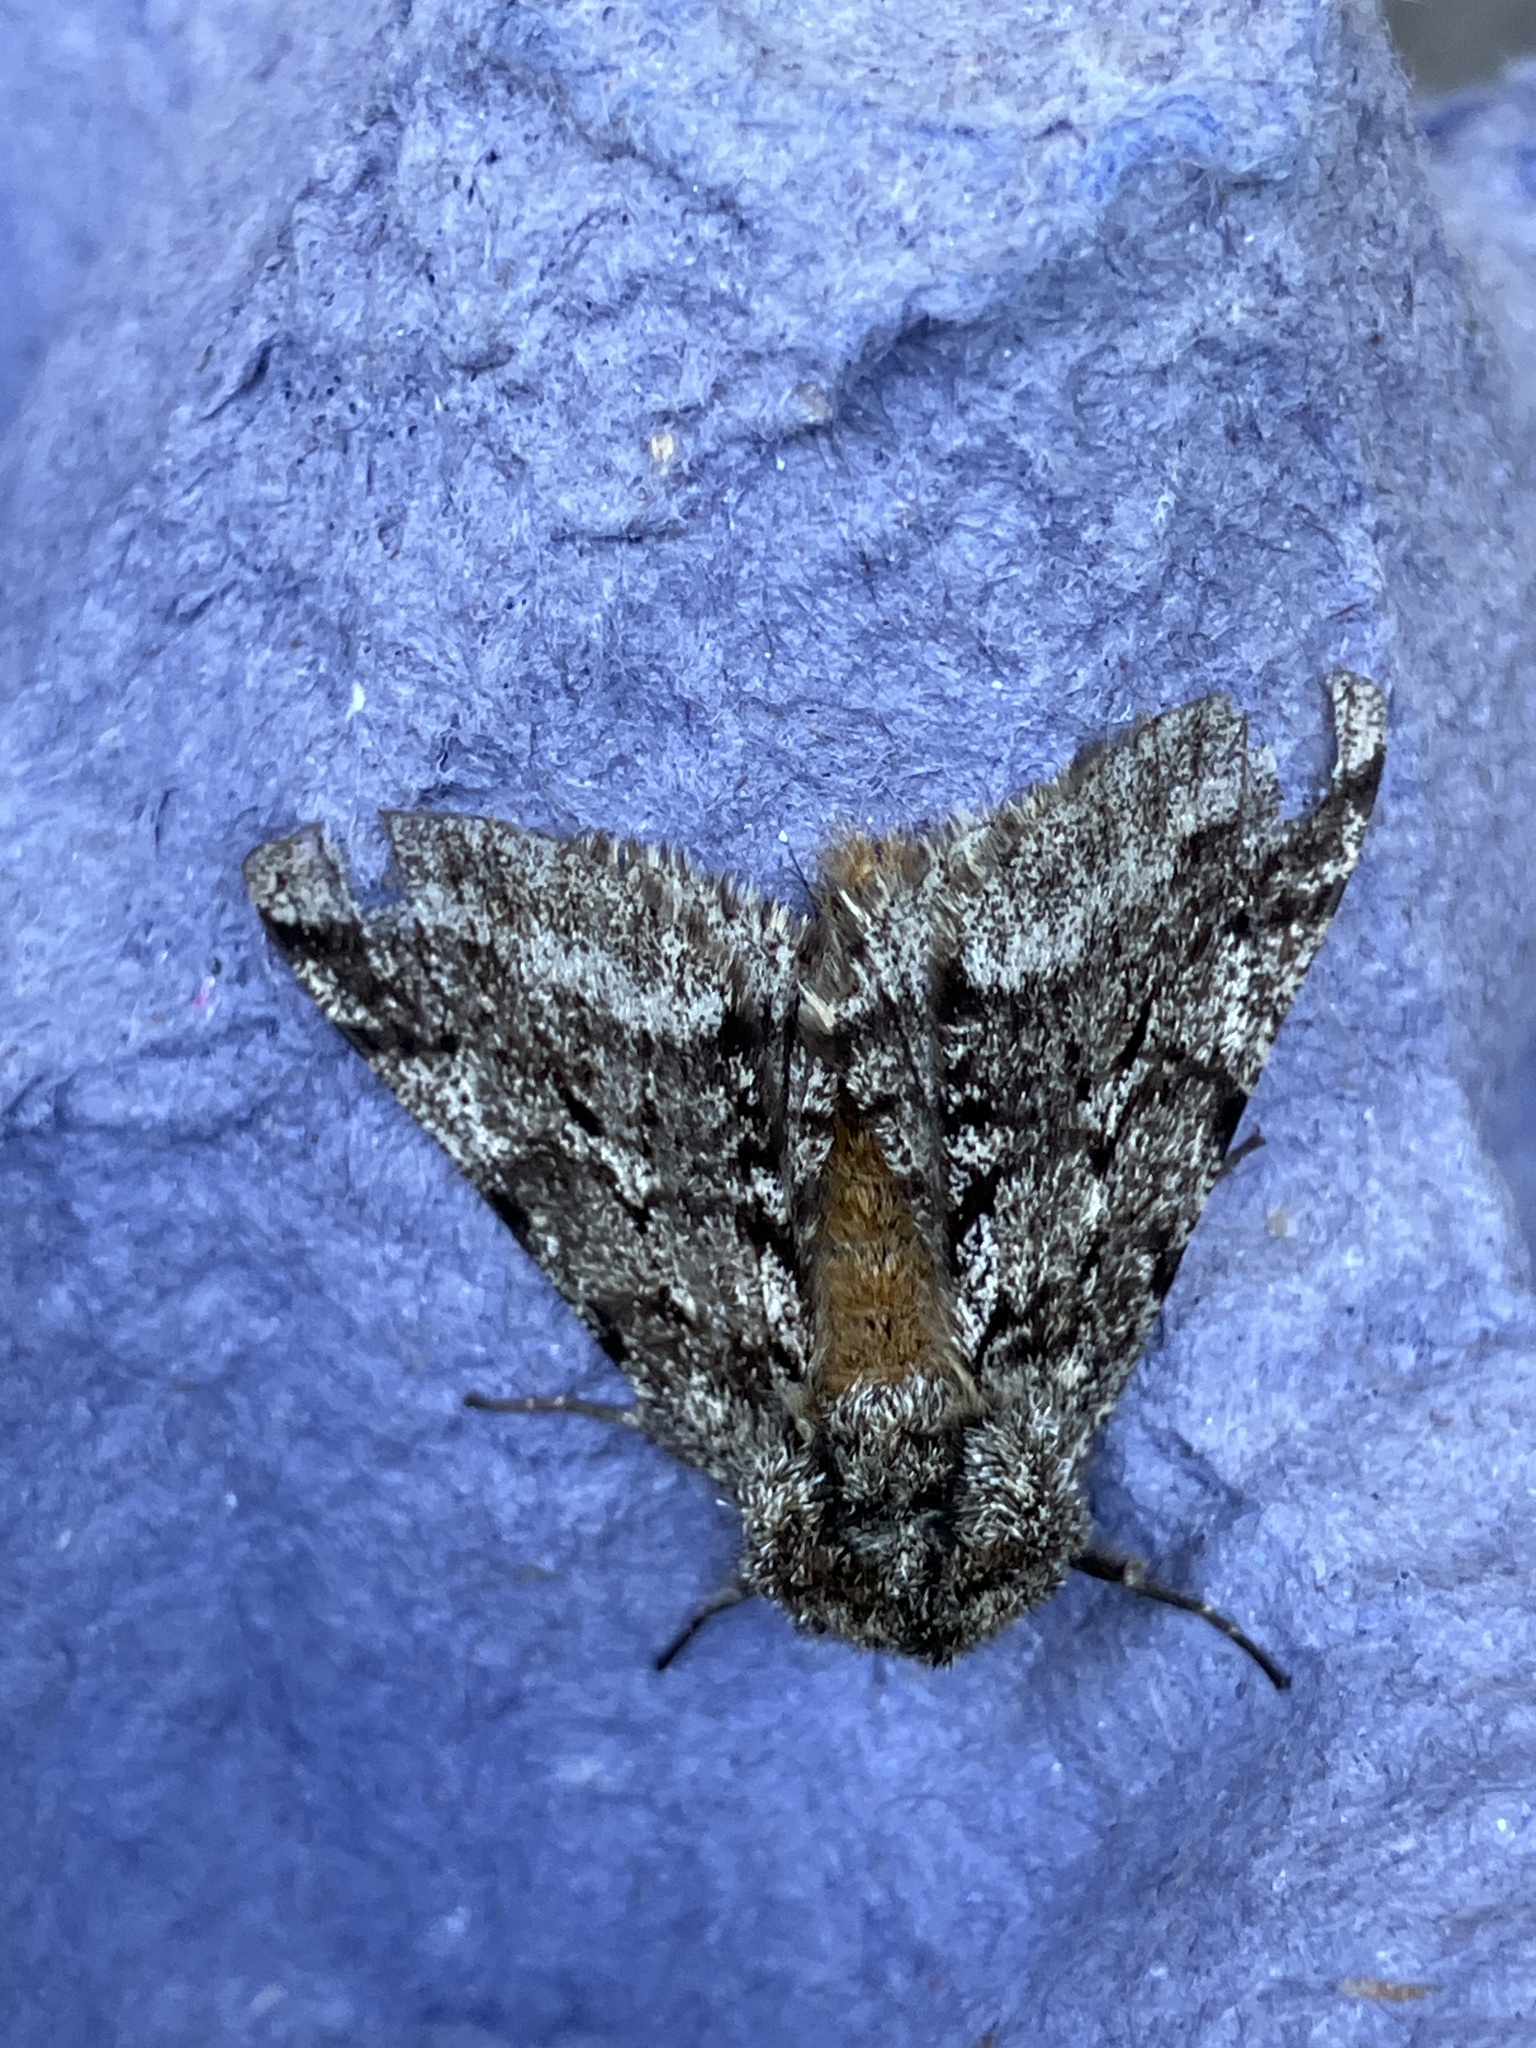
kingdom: Animalia
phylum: Arthropoda
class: Insecta
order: Lepidoptera
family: Geometridae
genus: Lycia
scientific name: Lycia hirtaria
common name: Brindled beauty
